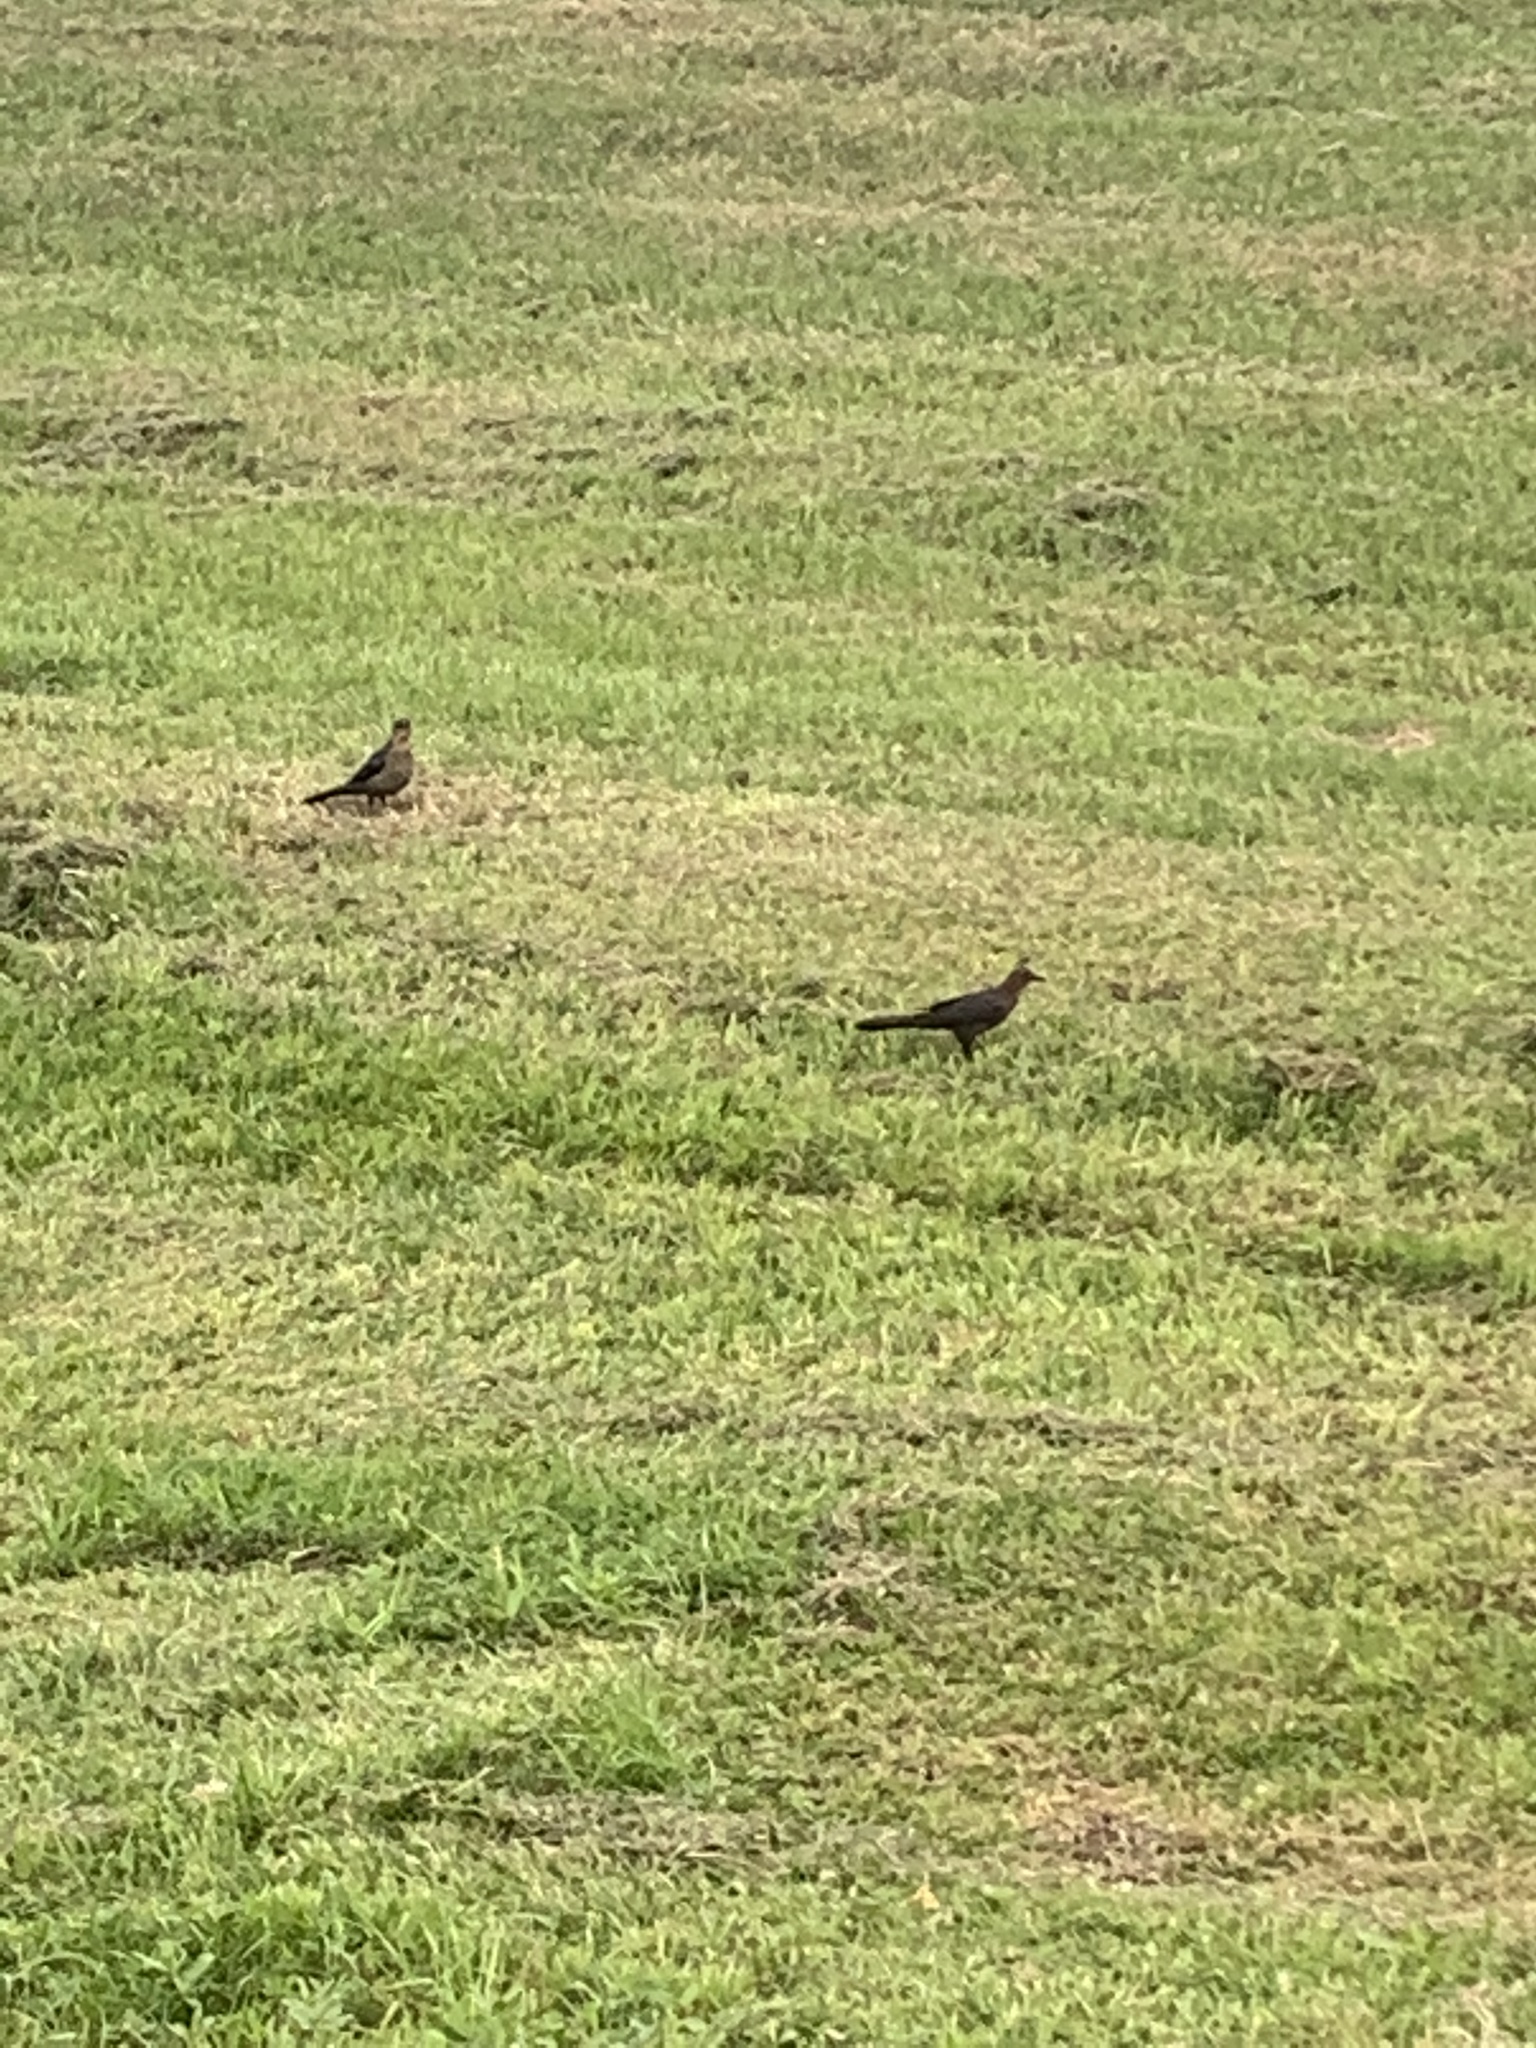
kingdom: Animalia
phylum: Chordata
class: Aves
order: Passeriformes
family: Icteridae
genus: Quiscalus
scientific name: Quiscalus mexicanus
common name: Great-tailed grackle
